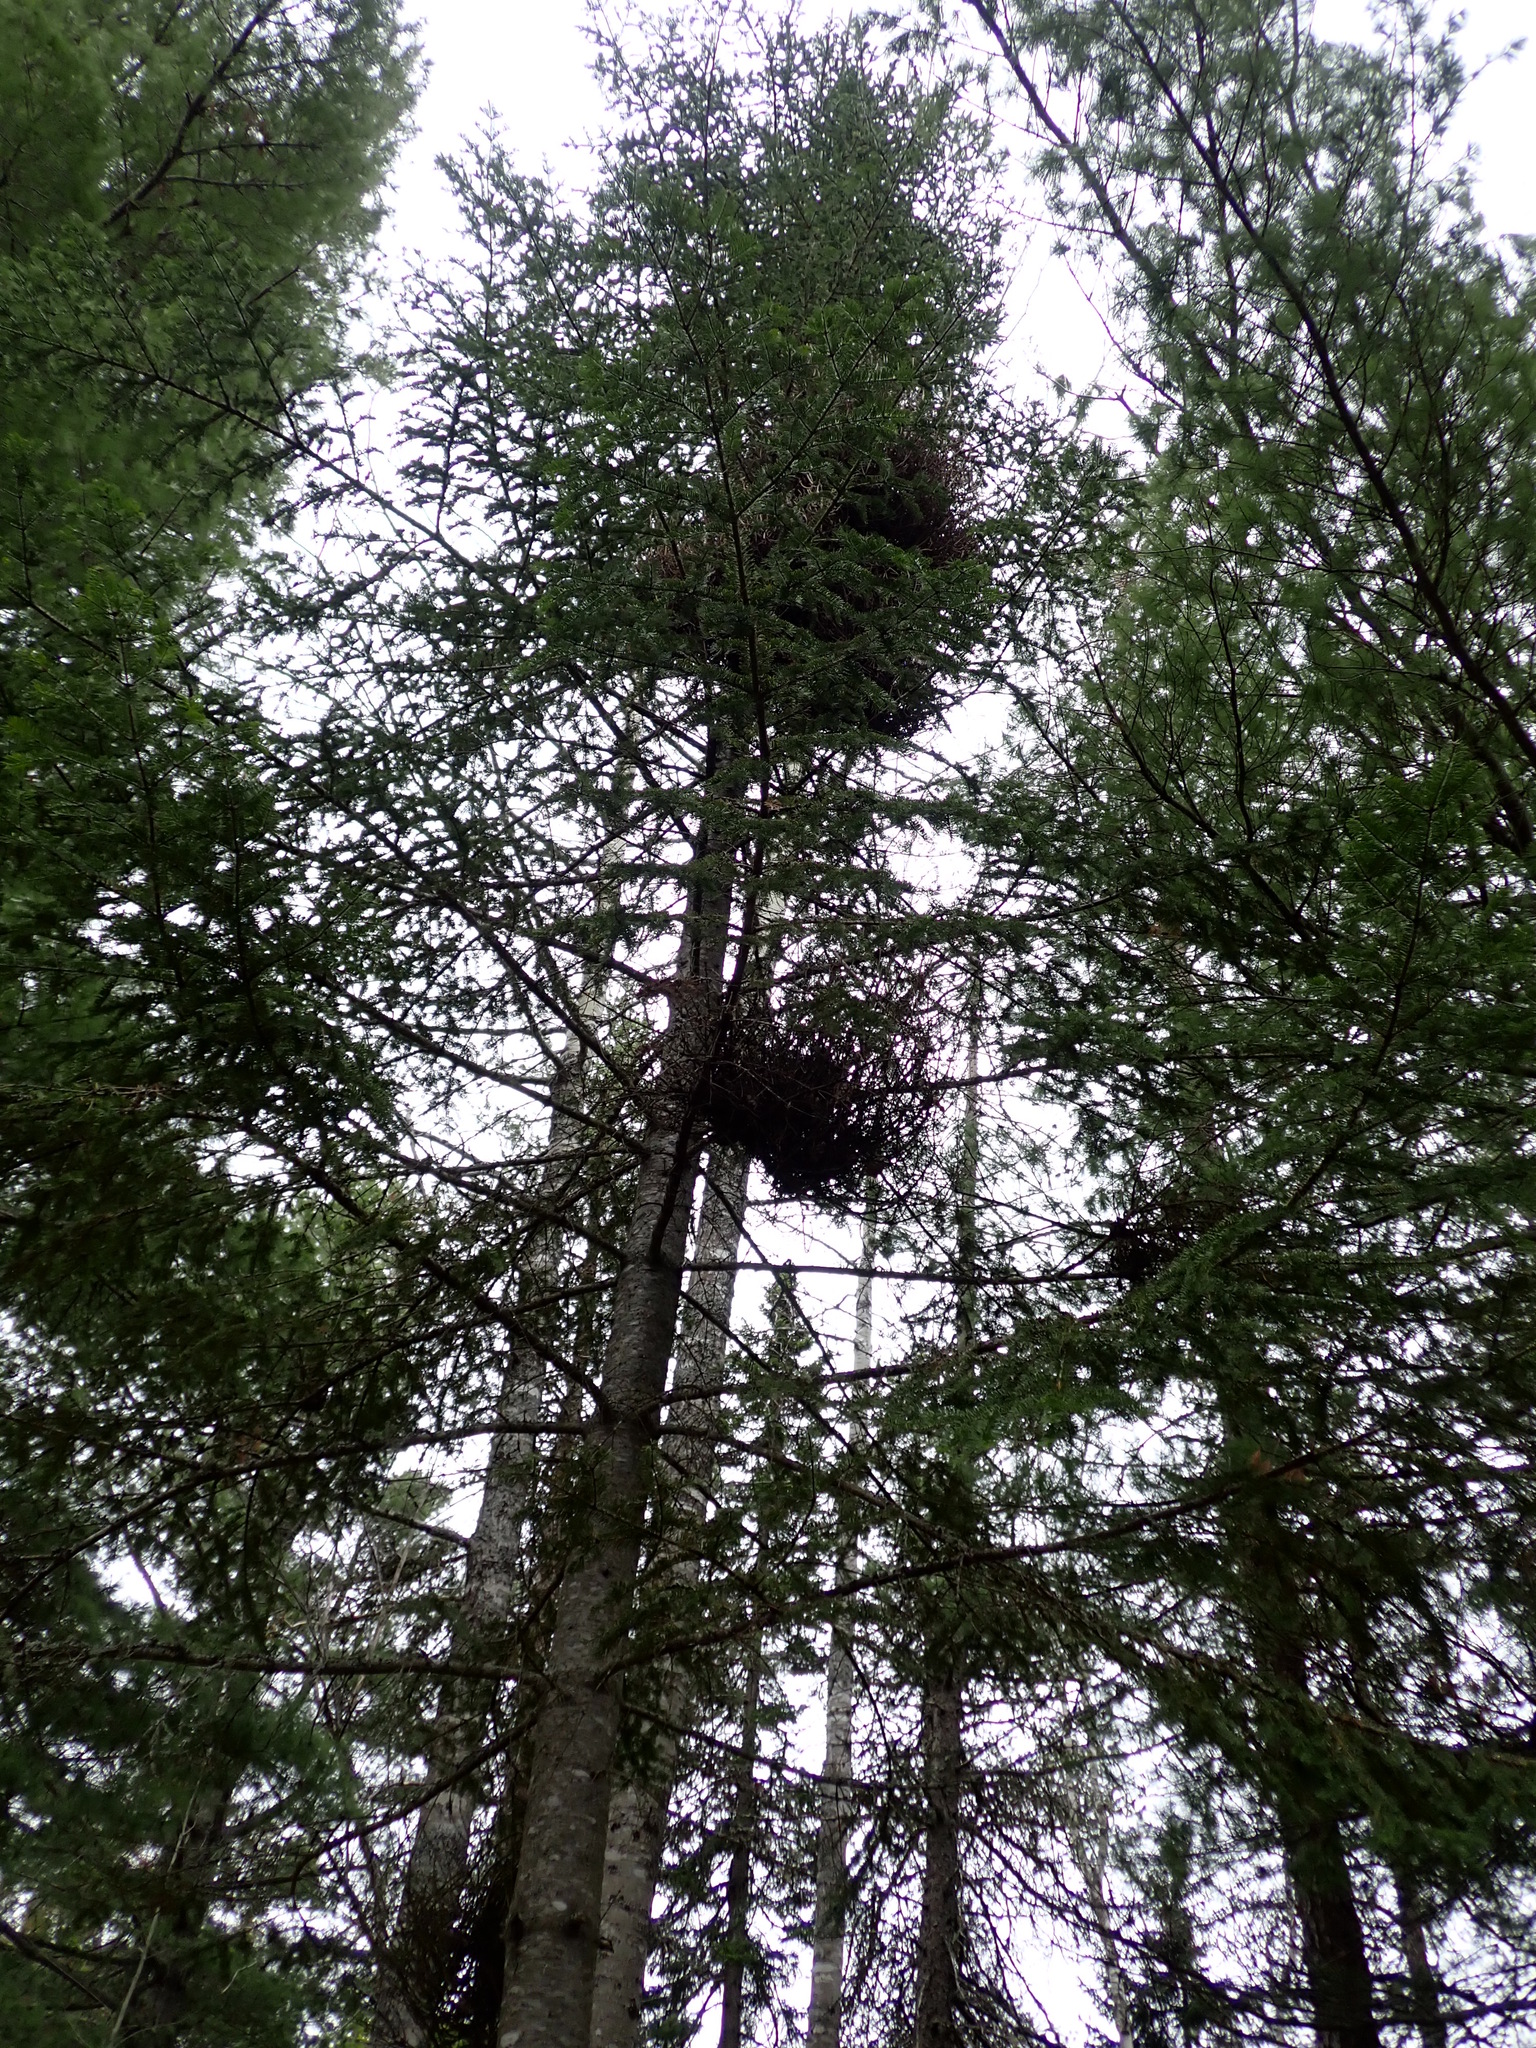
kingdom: Fungi
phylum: Basidiomycota
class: Pucciniomycetes
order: Pucciniales
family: Pucciniastraceae
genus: Melampsorella
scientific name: Melampsorella elatina
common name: Fir broom rust
